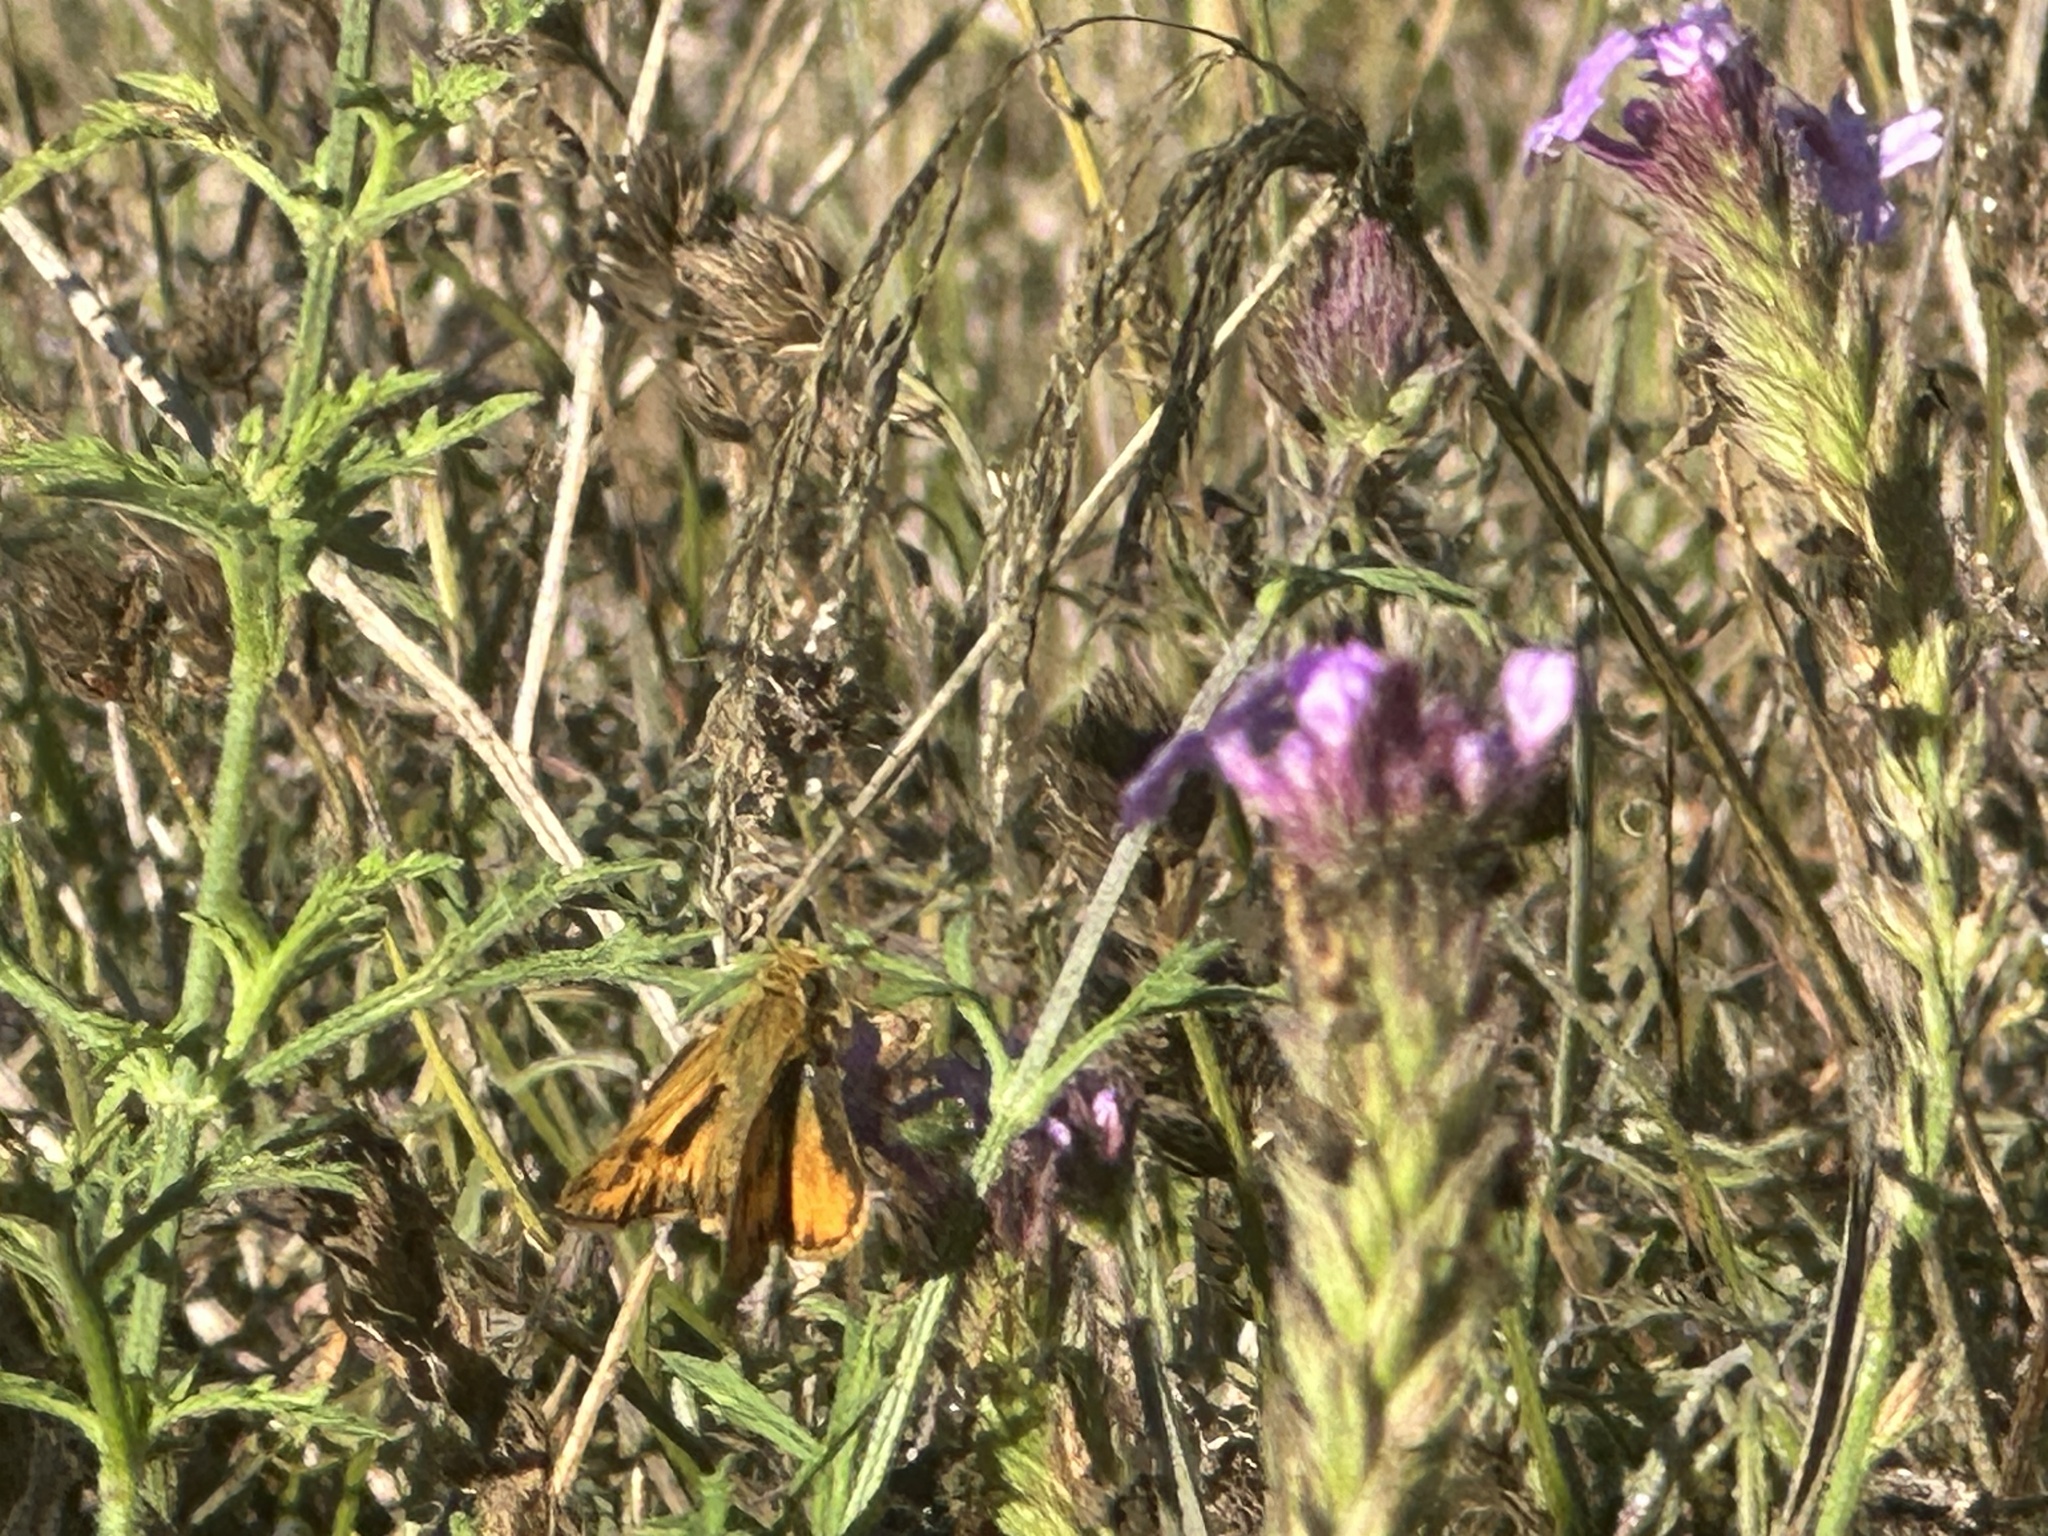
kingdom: Animalia
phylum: Arthropoda
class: Insecta
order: Lepidoptera
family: Hesperiidae
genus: Hylephila
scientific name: Hylephila phyleus
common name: Fiery skipper
